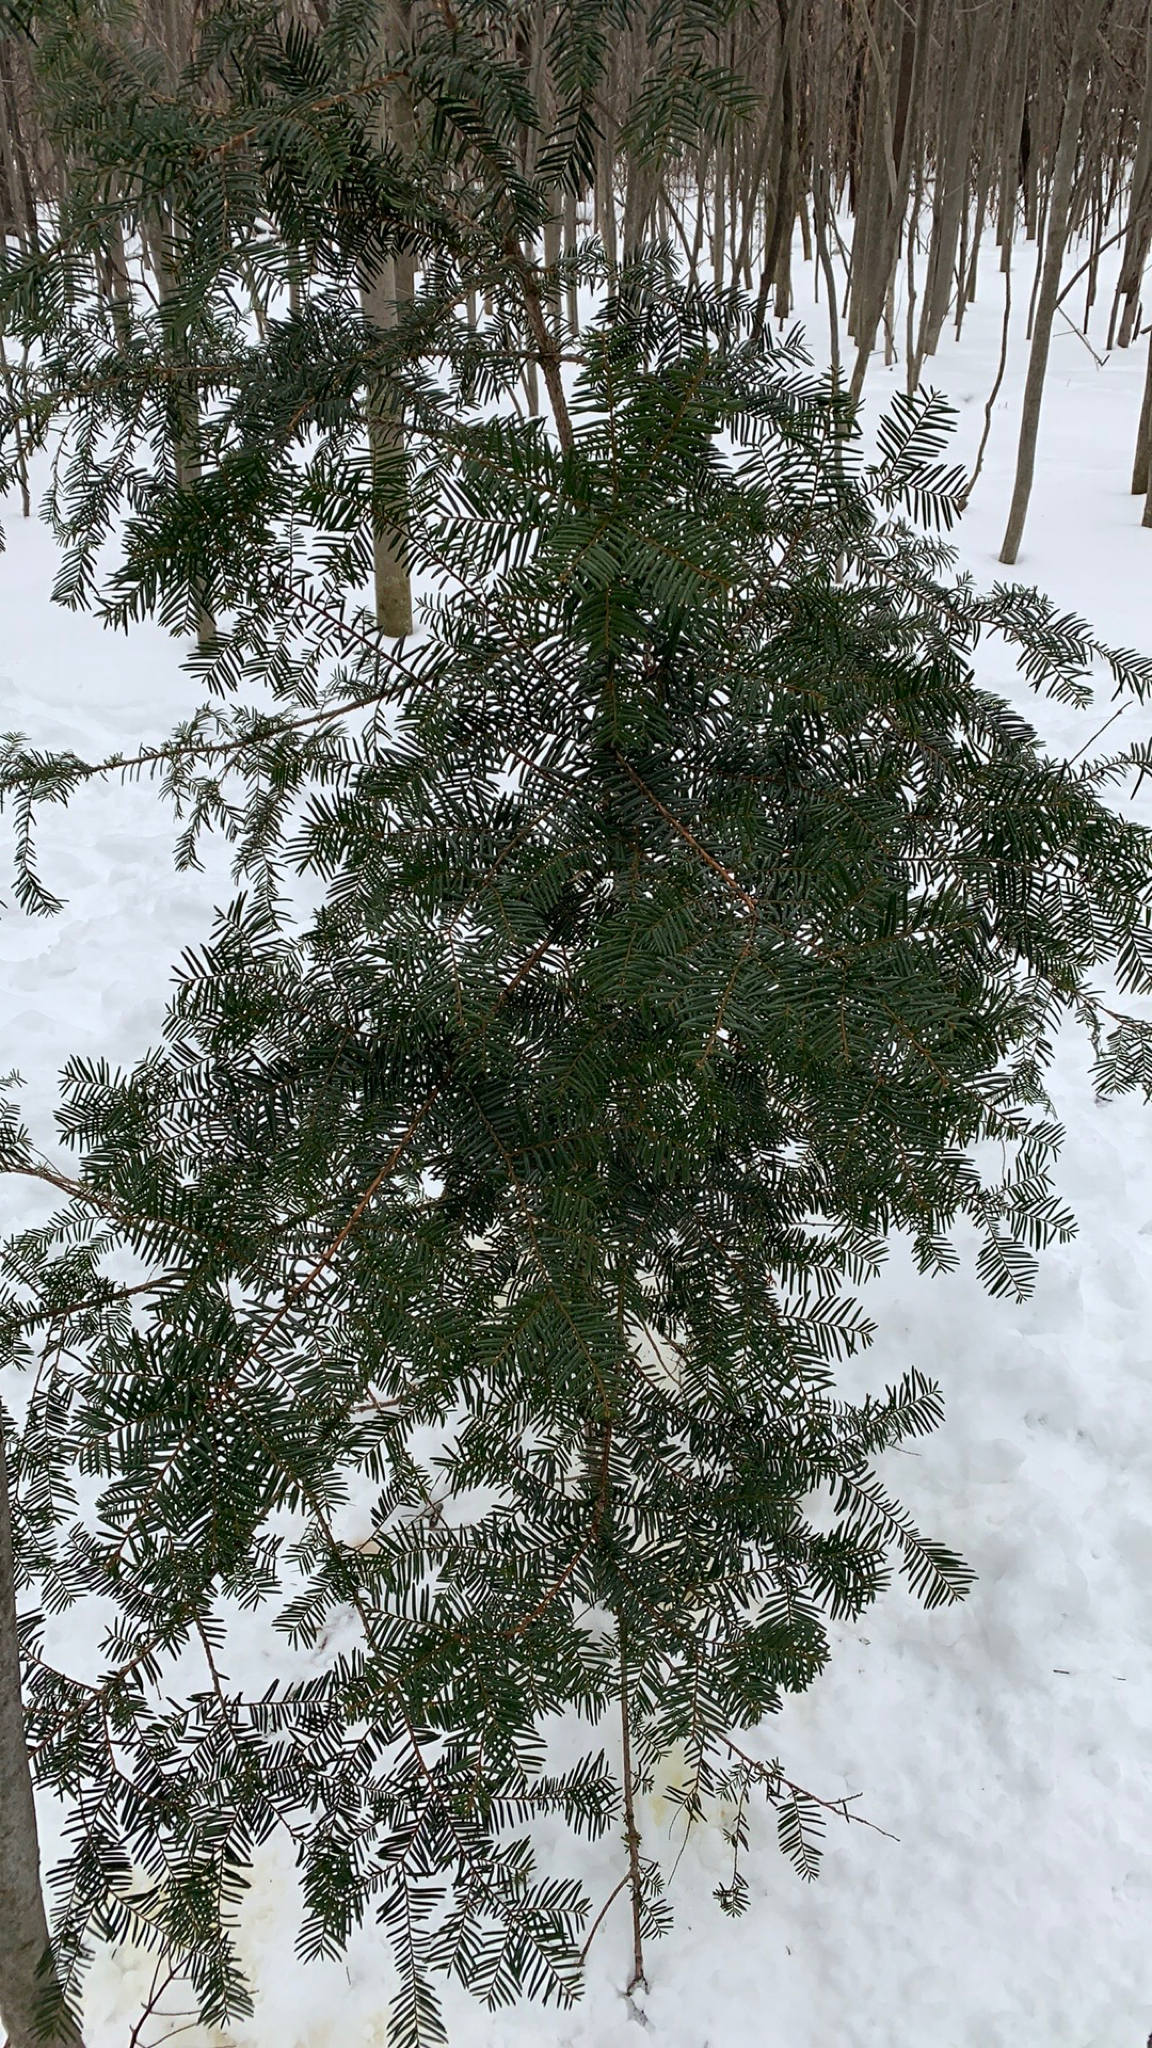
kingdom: Plantae
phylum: Tracheophyta
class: Pinopsida
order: Pinales
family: Pinaceae
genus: Abies
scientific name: Abies balsamea
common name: Balsam fir
